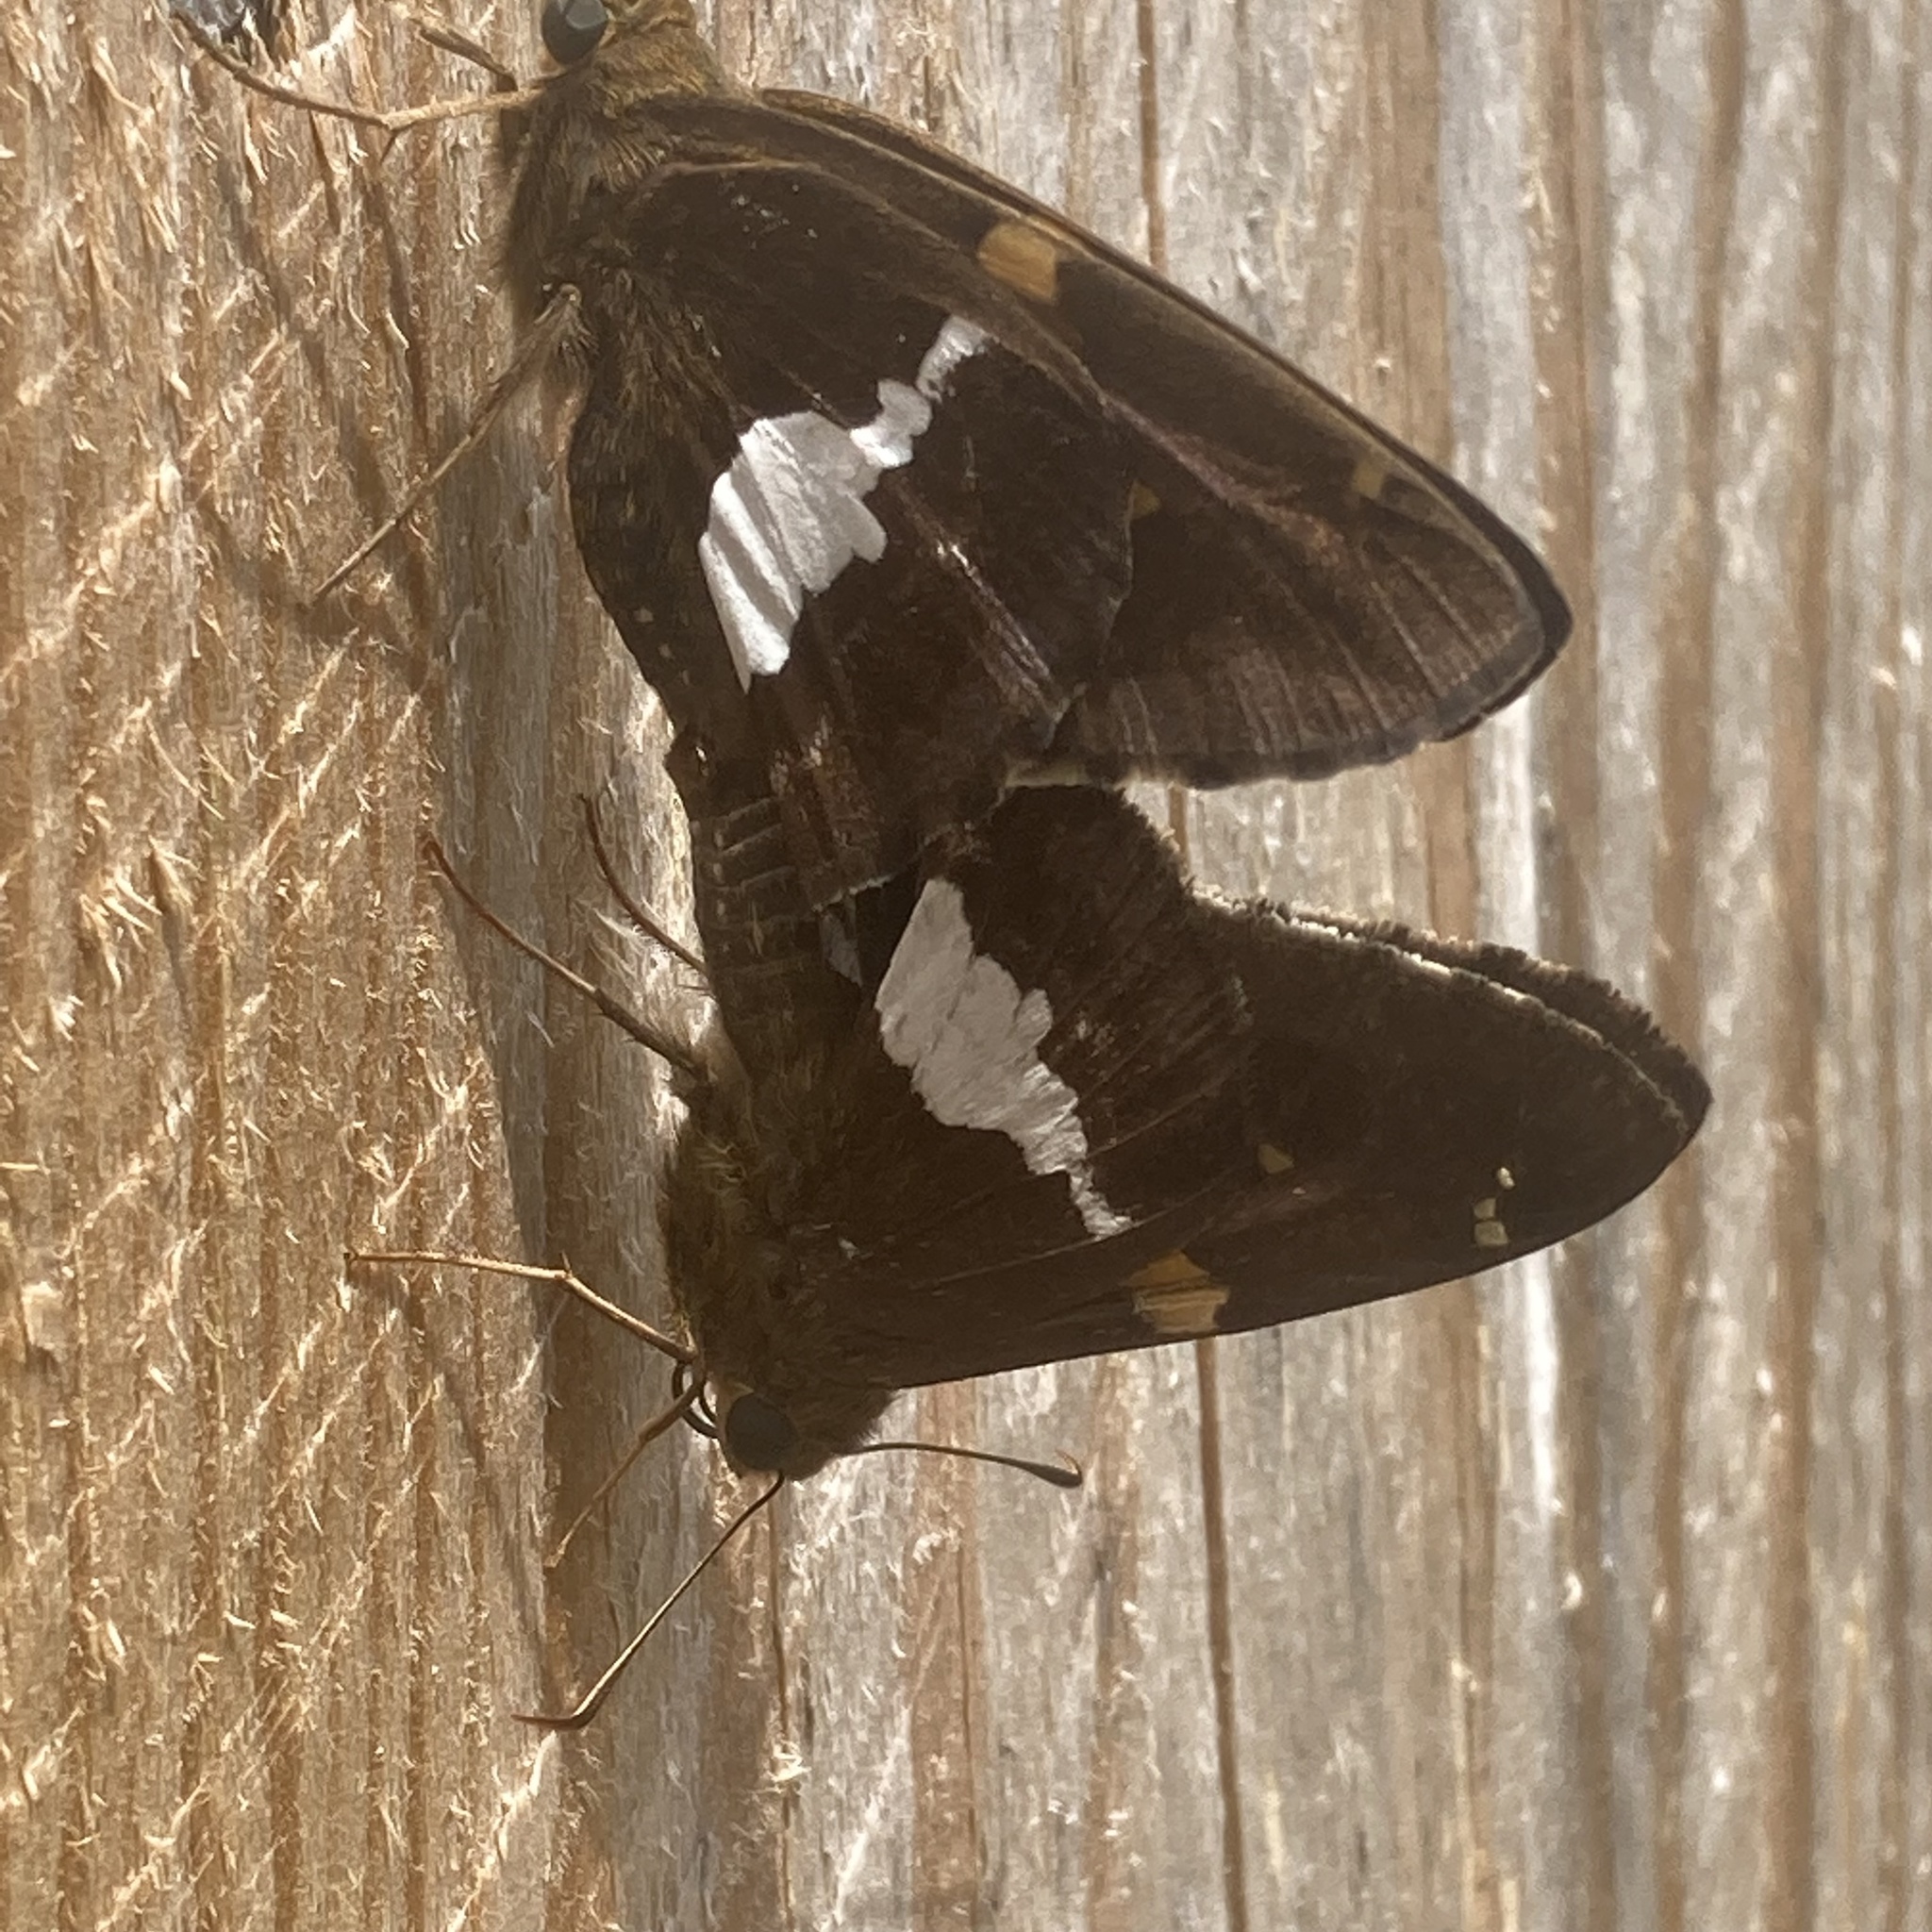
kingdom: Animalia
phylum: Arthropoda
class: Insecta
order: Lepidoptera
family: Hesperiidae
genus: Epargyreus
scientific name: Epargyreus clarus
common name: Silver-spotted skipper
